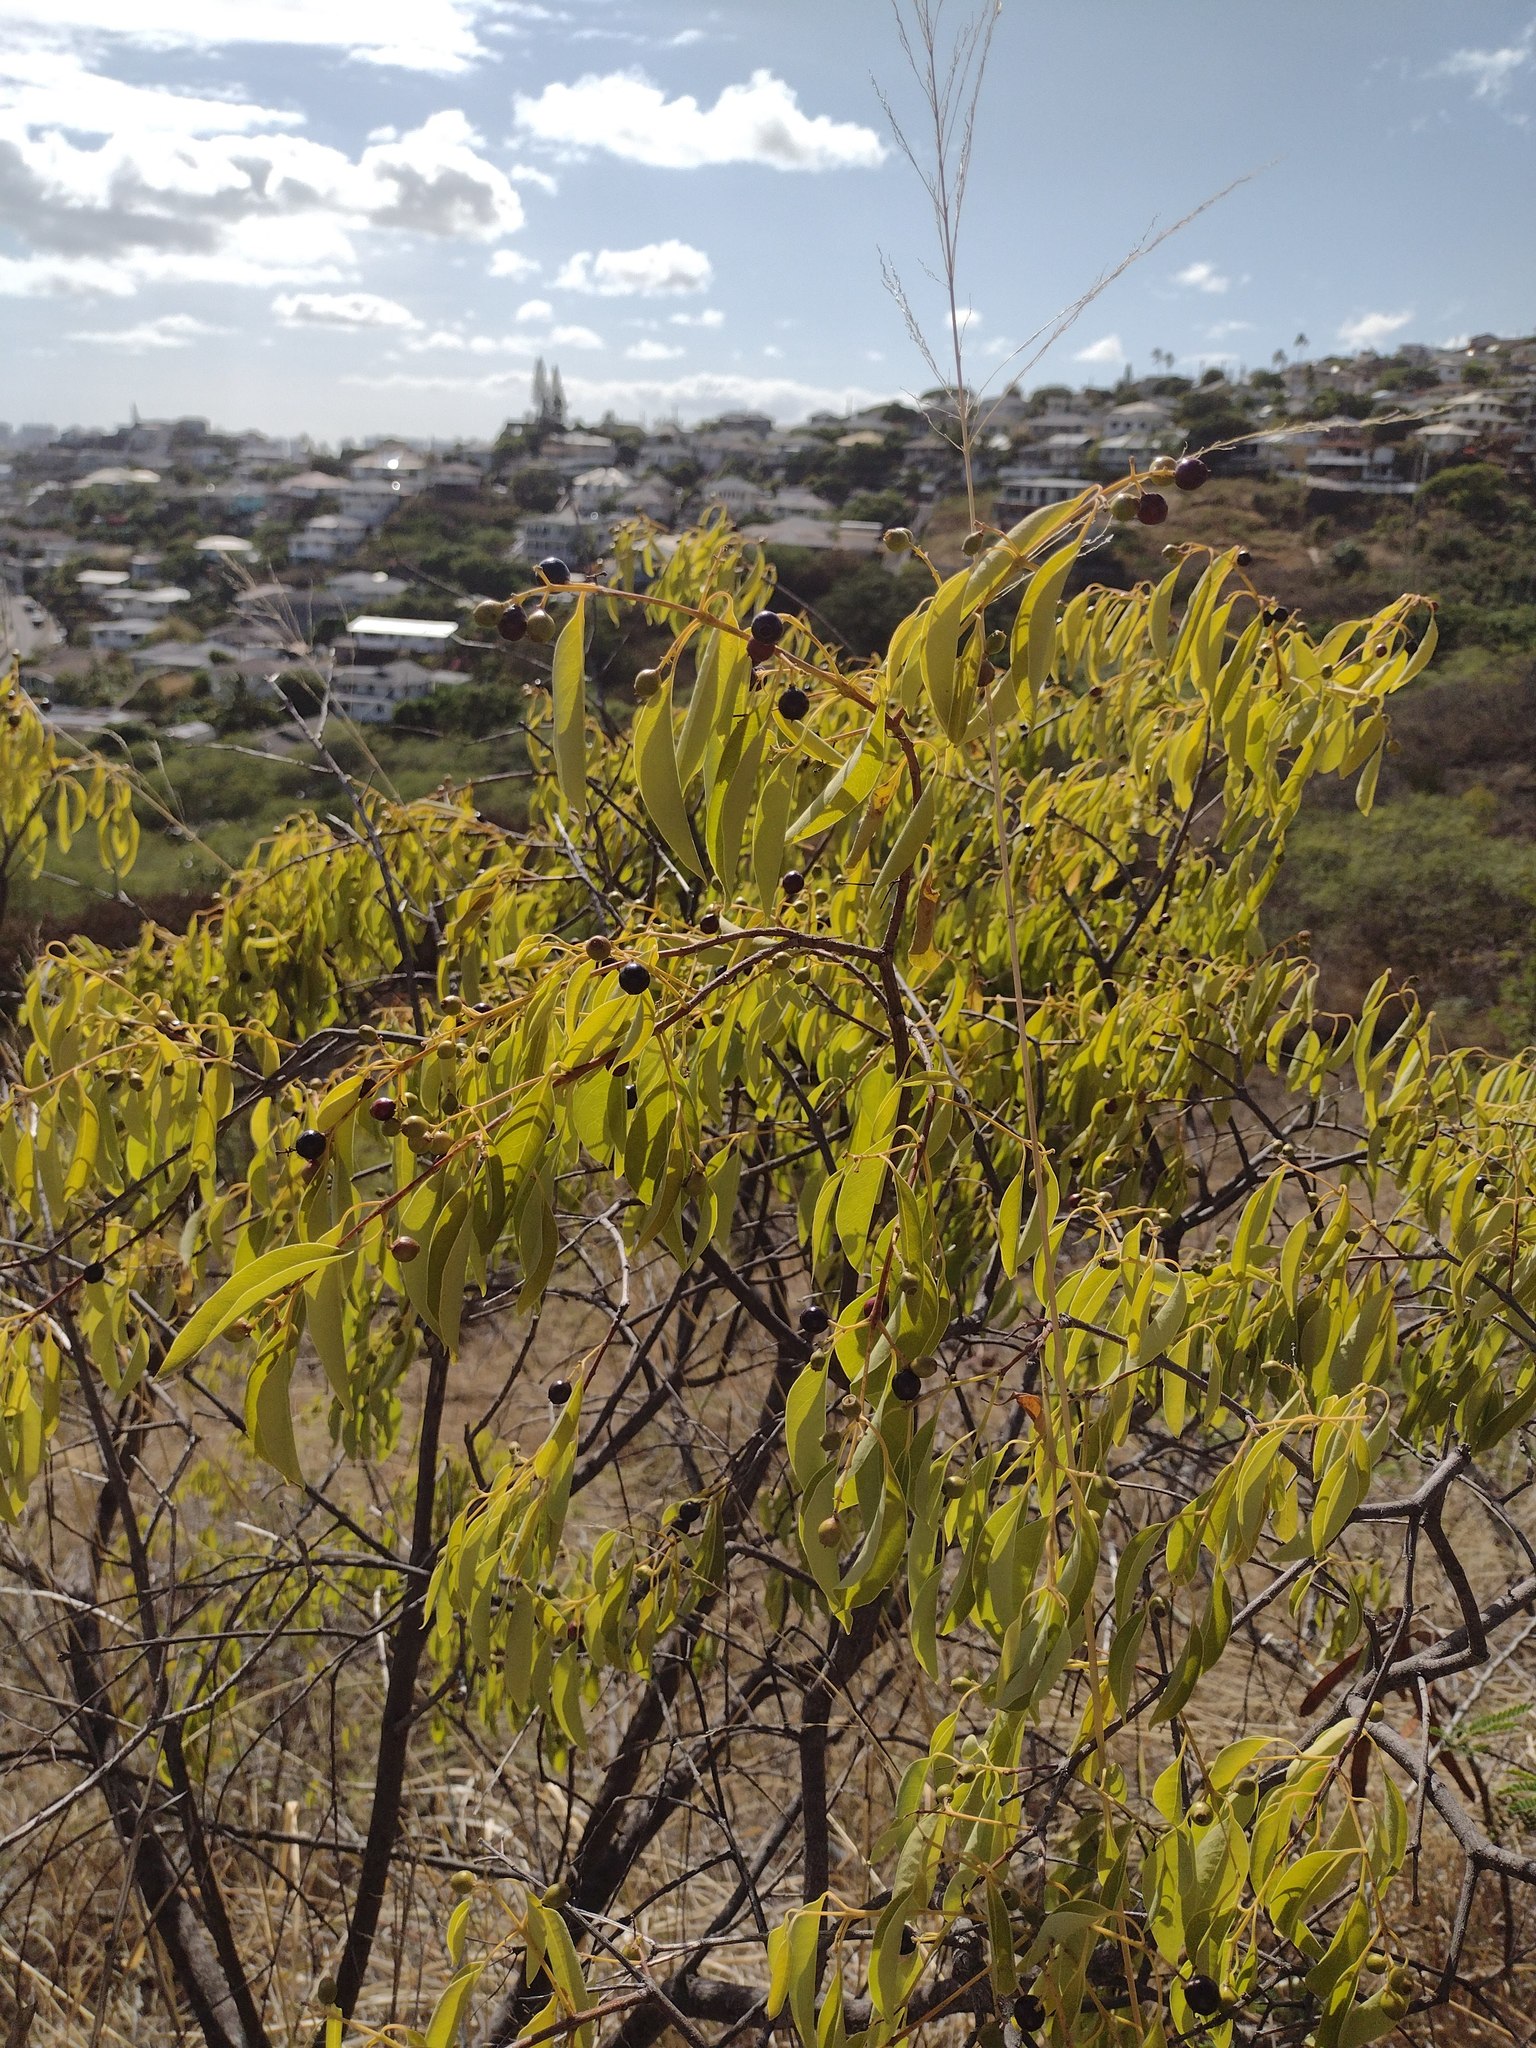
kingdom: Plantae
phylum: Tracheophyta
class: Magnoliopsida
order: Santalales
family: Santalaceae
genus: Santalum
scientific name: Santalum album
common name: Indian sandalwood
